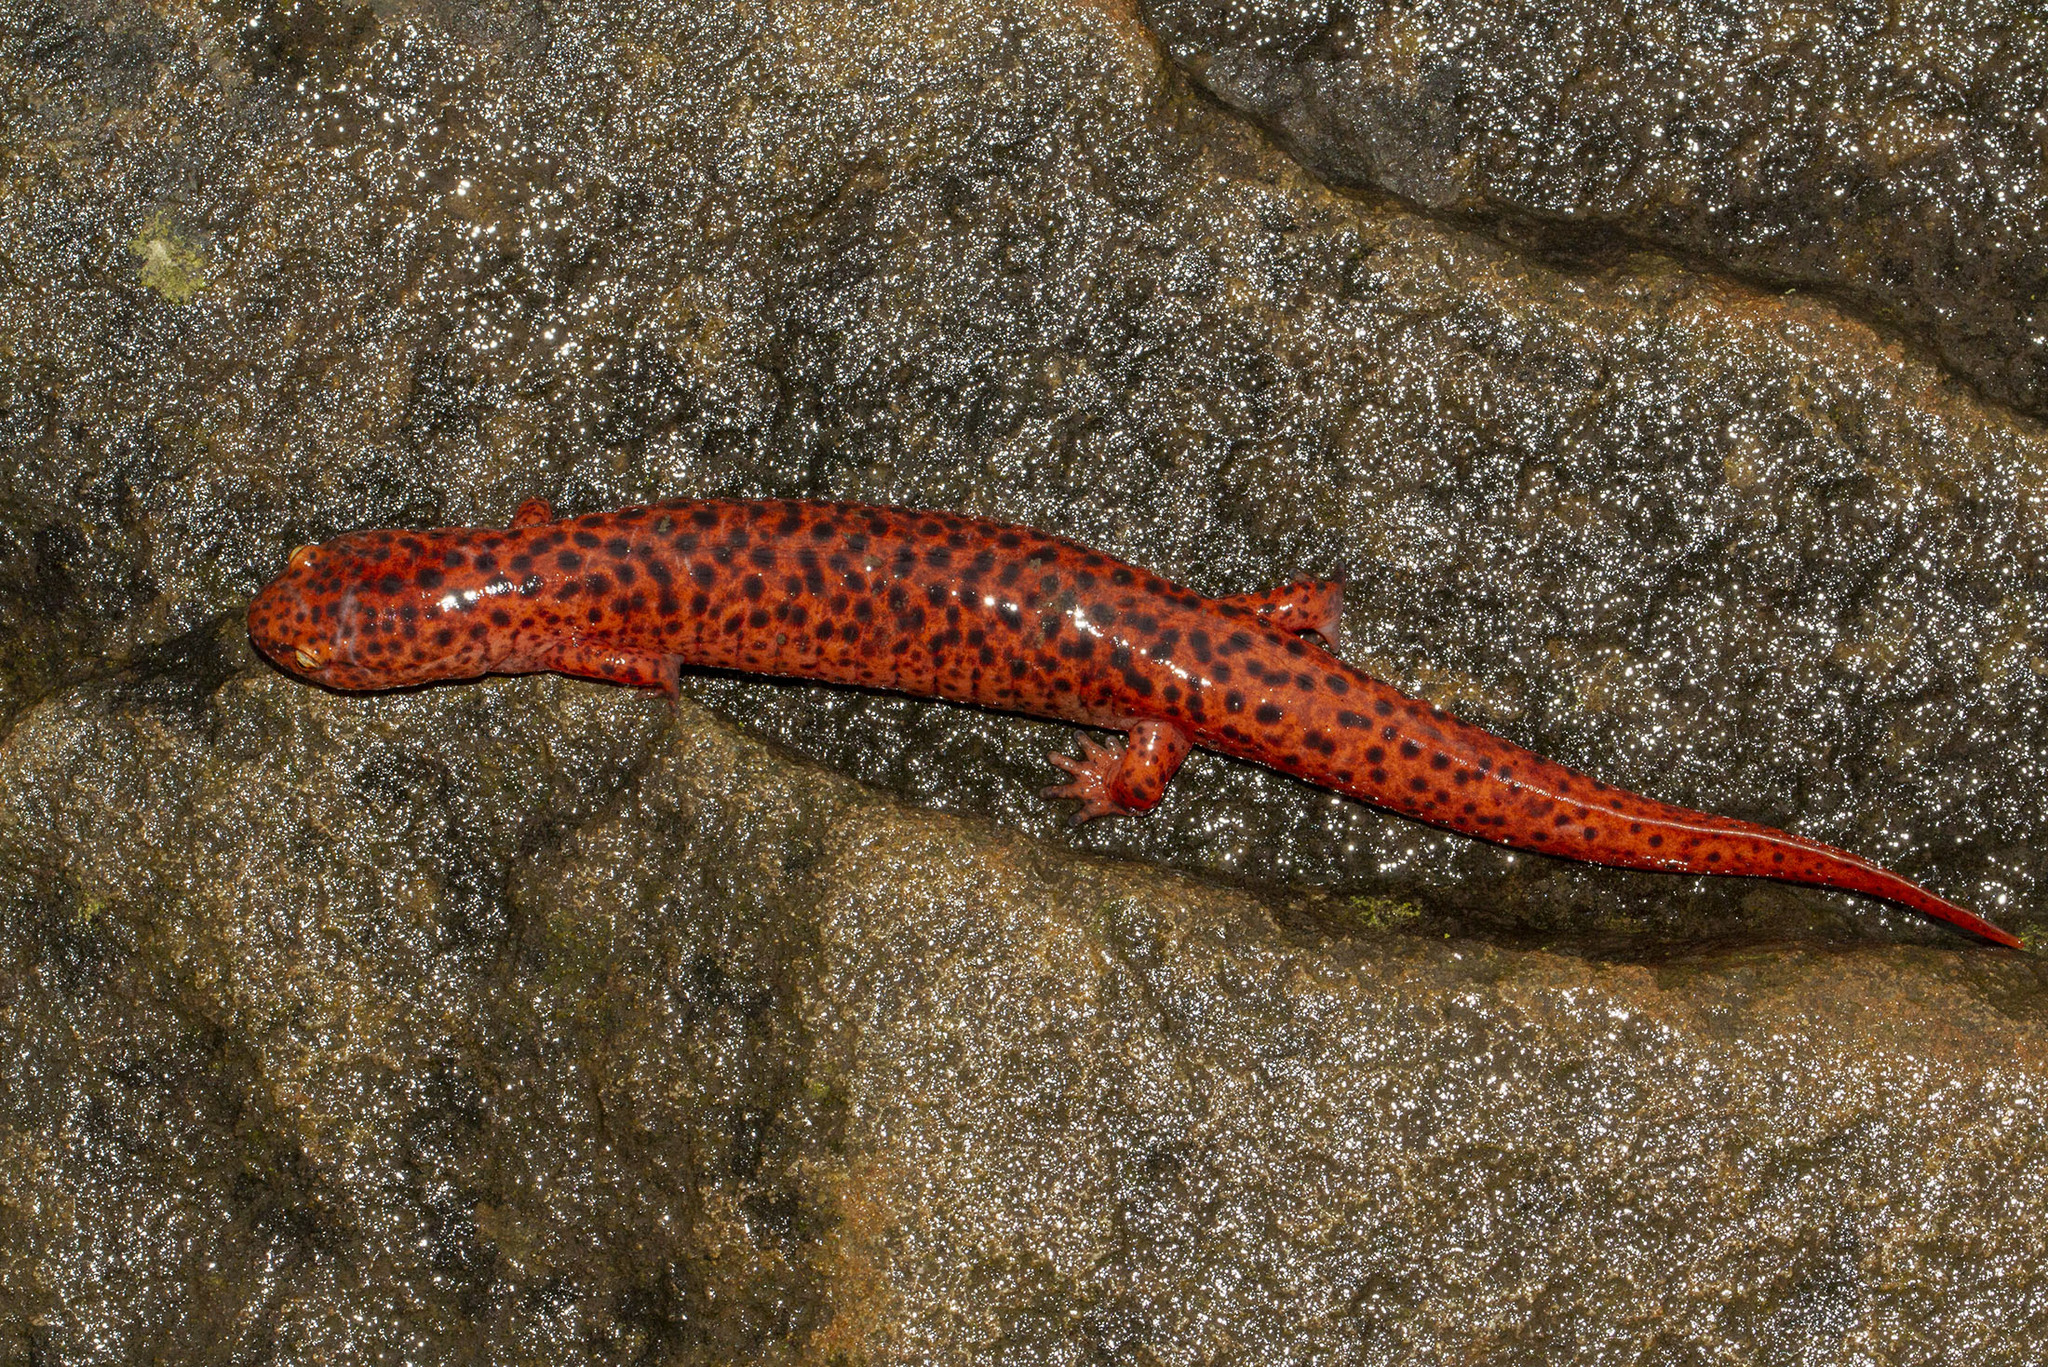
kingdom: Animalia
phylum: Chordata
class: Amphibia
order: Caudata
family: Plethodontidae
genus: Pseudotriton
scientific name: Pseudotriton ruber
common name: Red salamander
